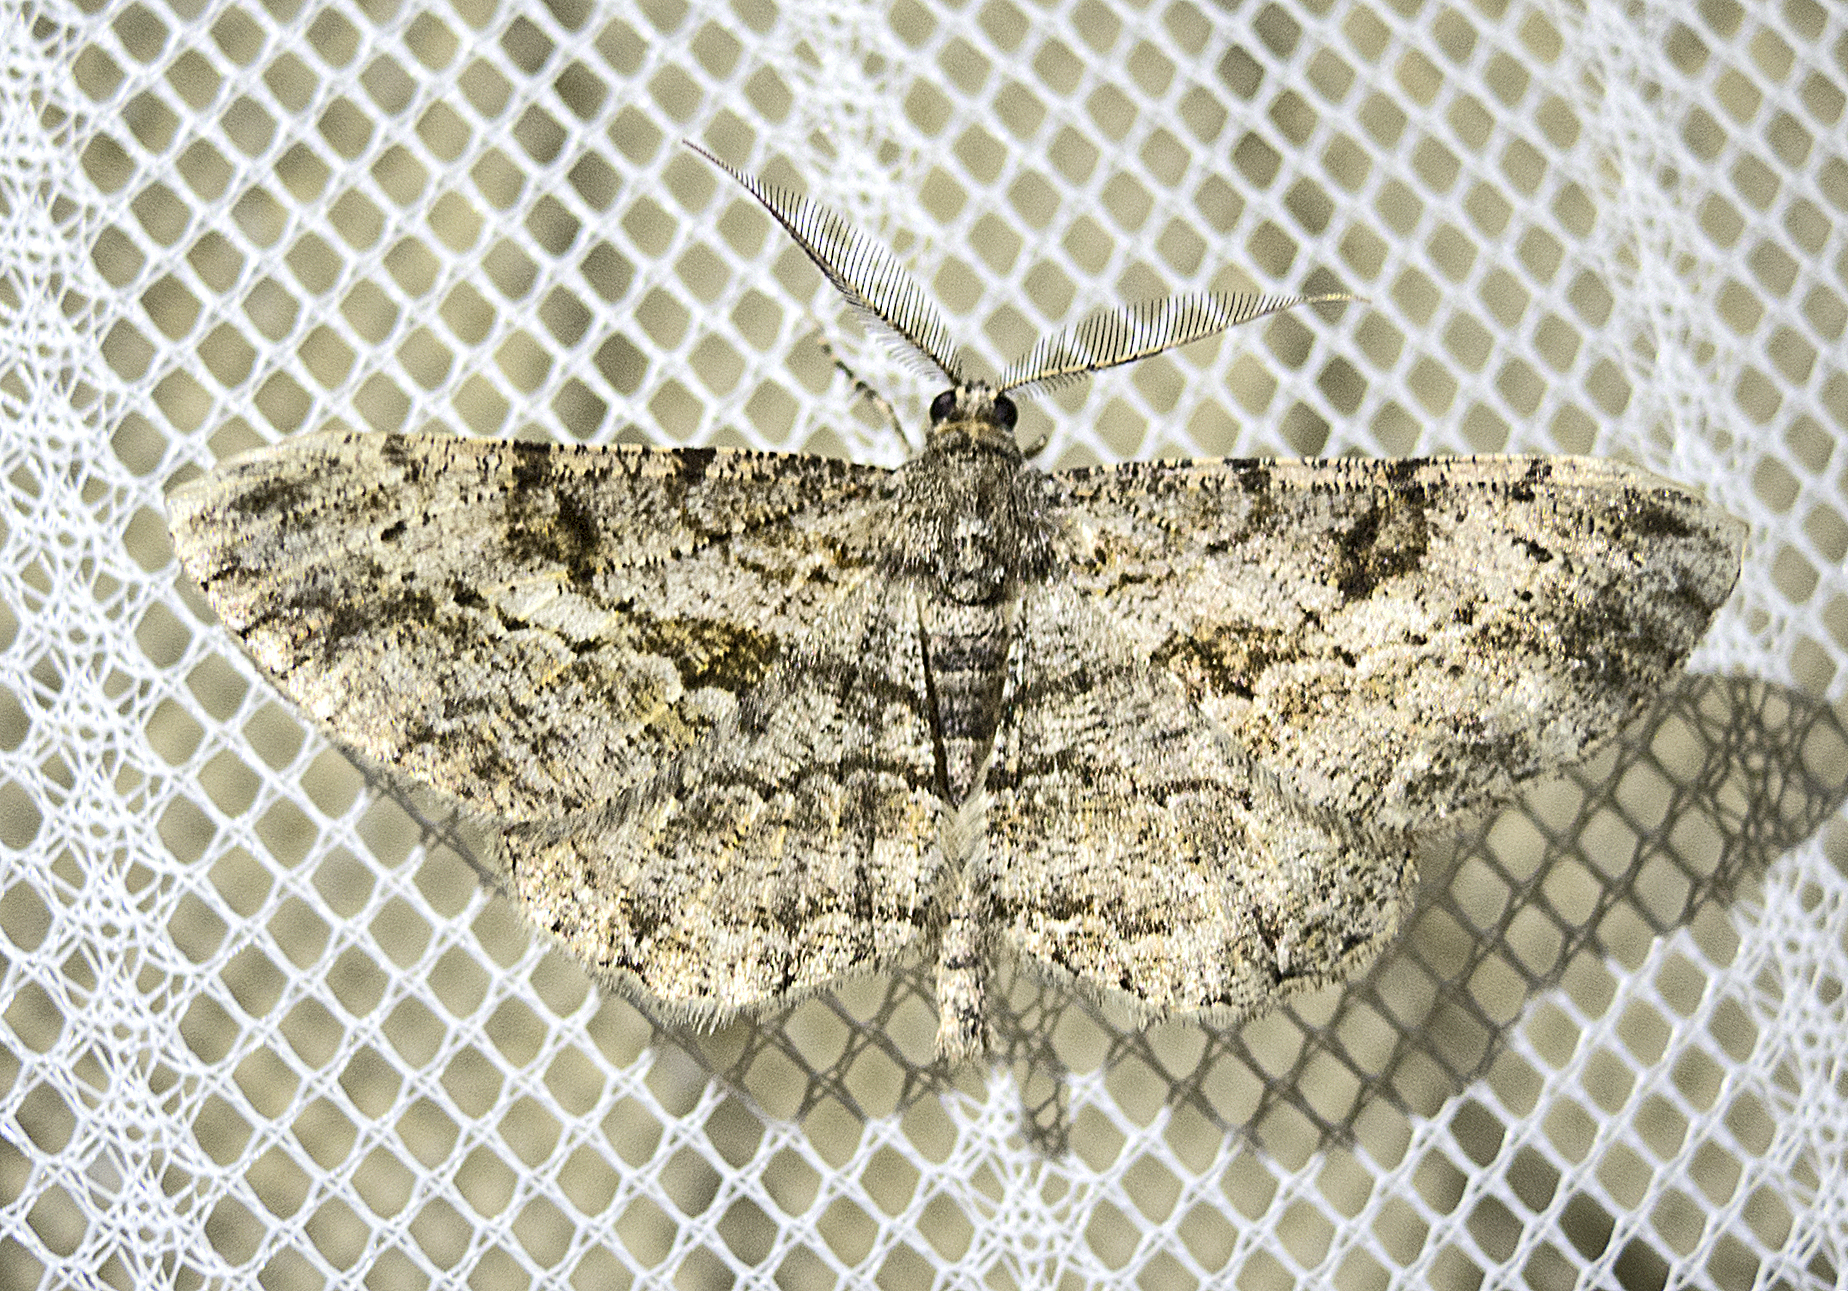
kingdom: Animalia
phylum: Arthropoda
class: Insecta
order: Lepidoptera
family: Geometridae
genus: Peribatodes
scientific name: Peribatodes rhomboidaria
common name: Willow beauty
